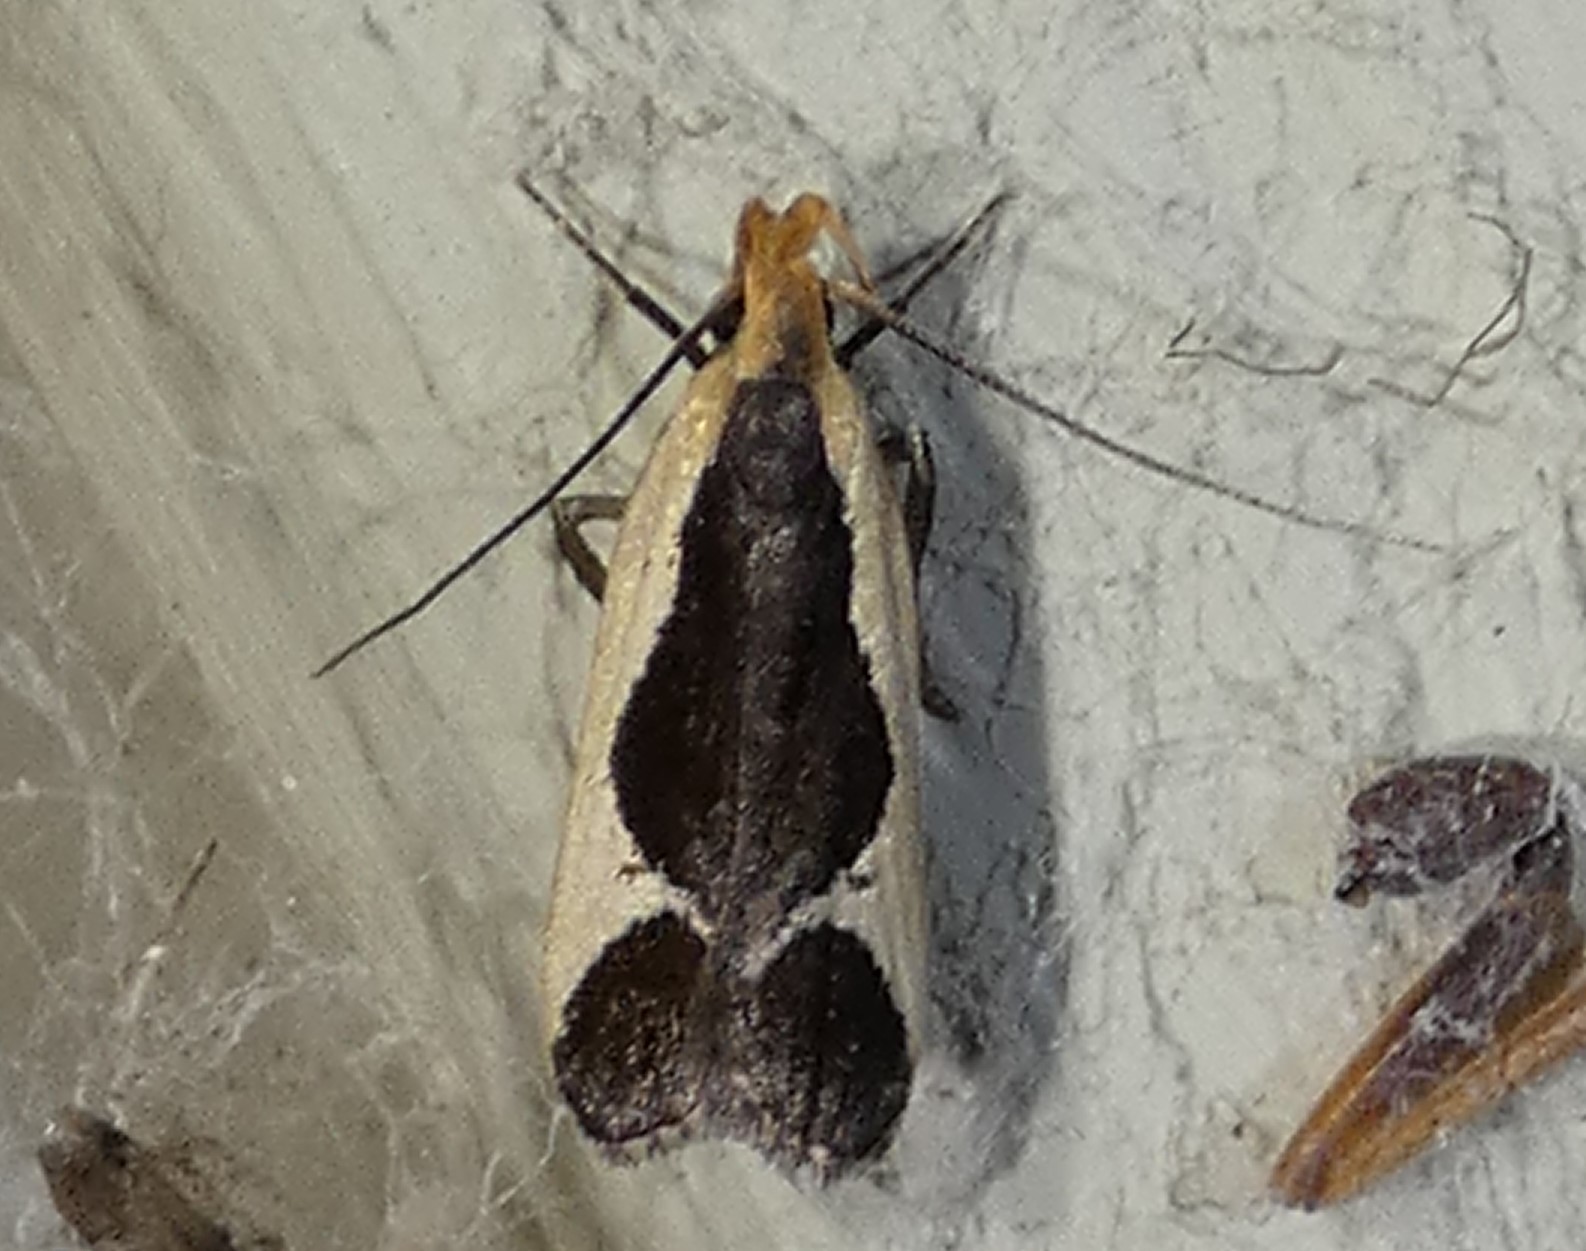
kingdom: Animalia
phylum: Arthropoda
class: Insecta
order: Lepidoptera
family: Gelechiidae
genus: Dichomeris
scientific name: Dichomeris flavocostella
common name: Cream-edged dichomeris moth
